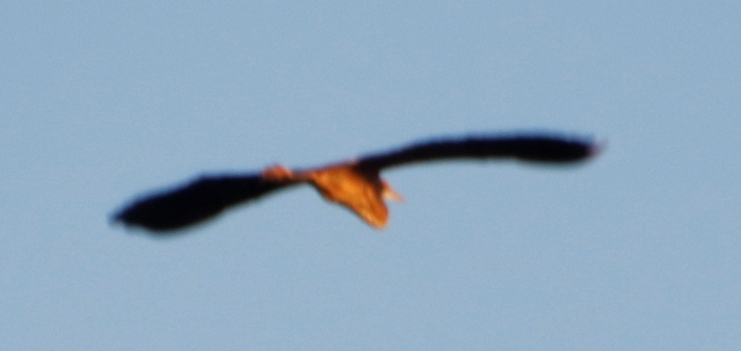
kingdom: Animalia
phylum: Chordata
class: Aves
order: Pelecaniformes
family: Ardeidae
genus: Ardea
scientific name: Ardea purpurea
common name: Purple heron
